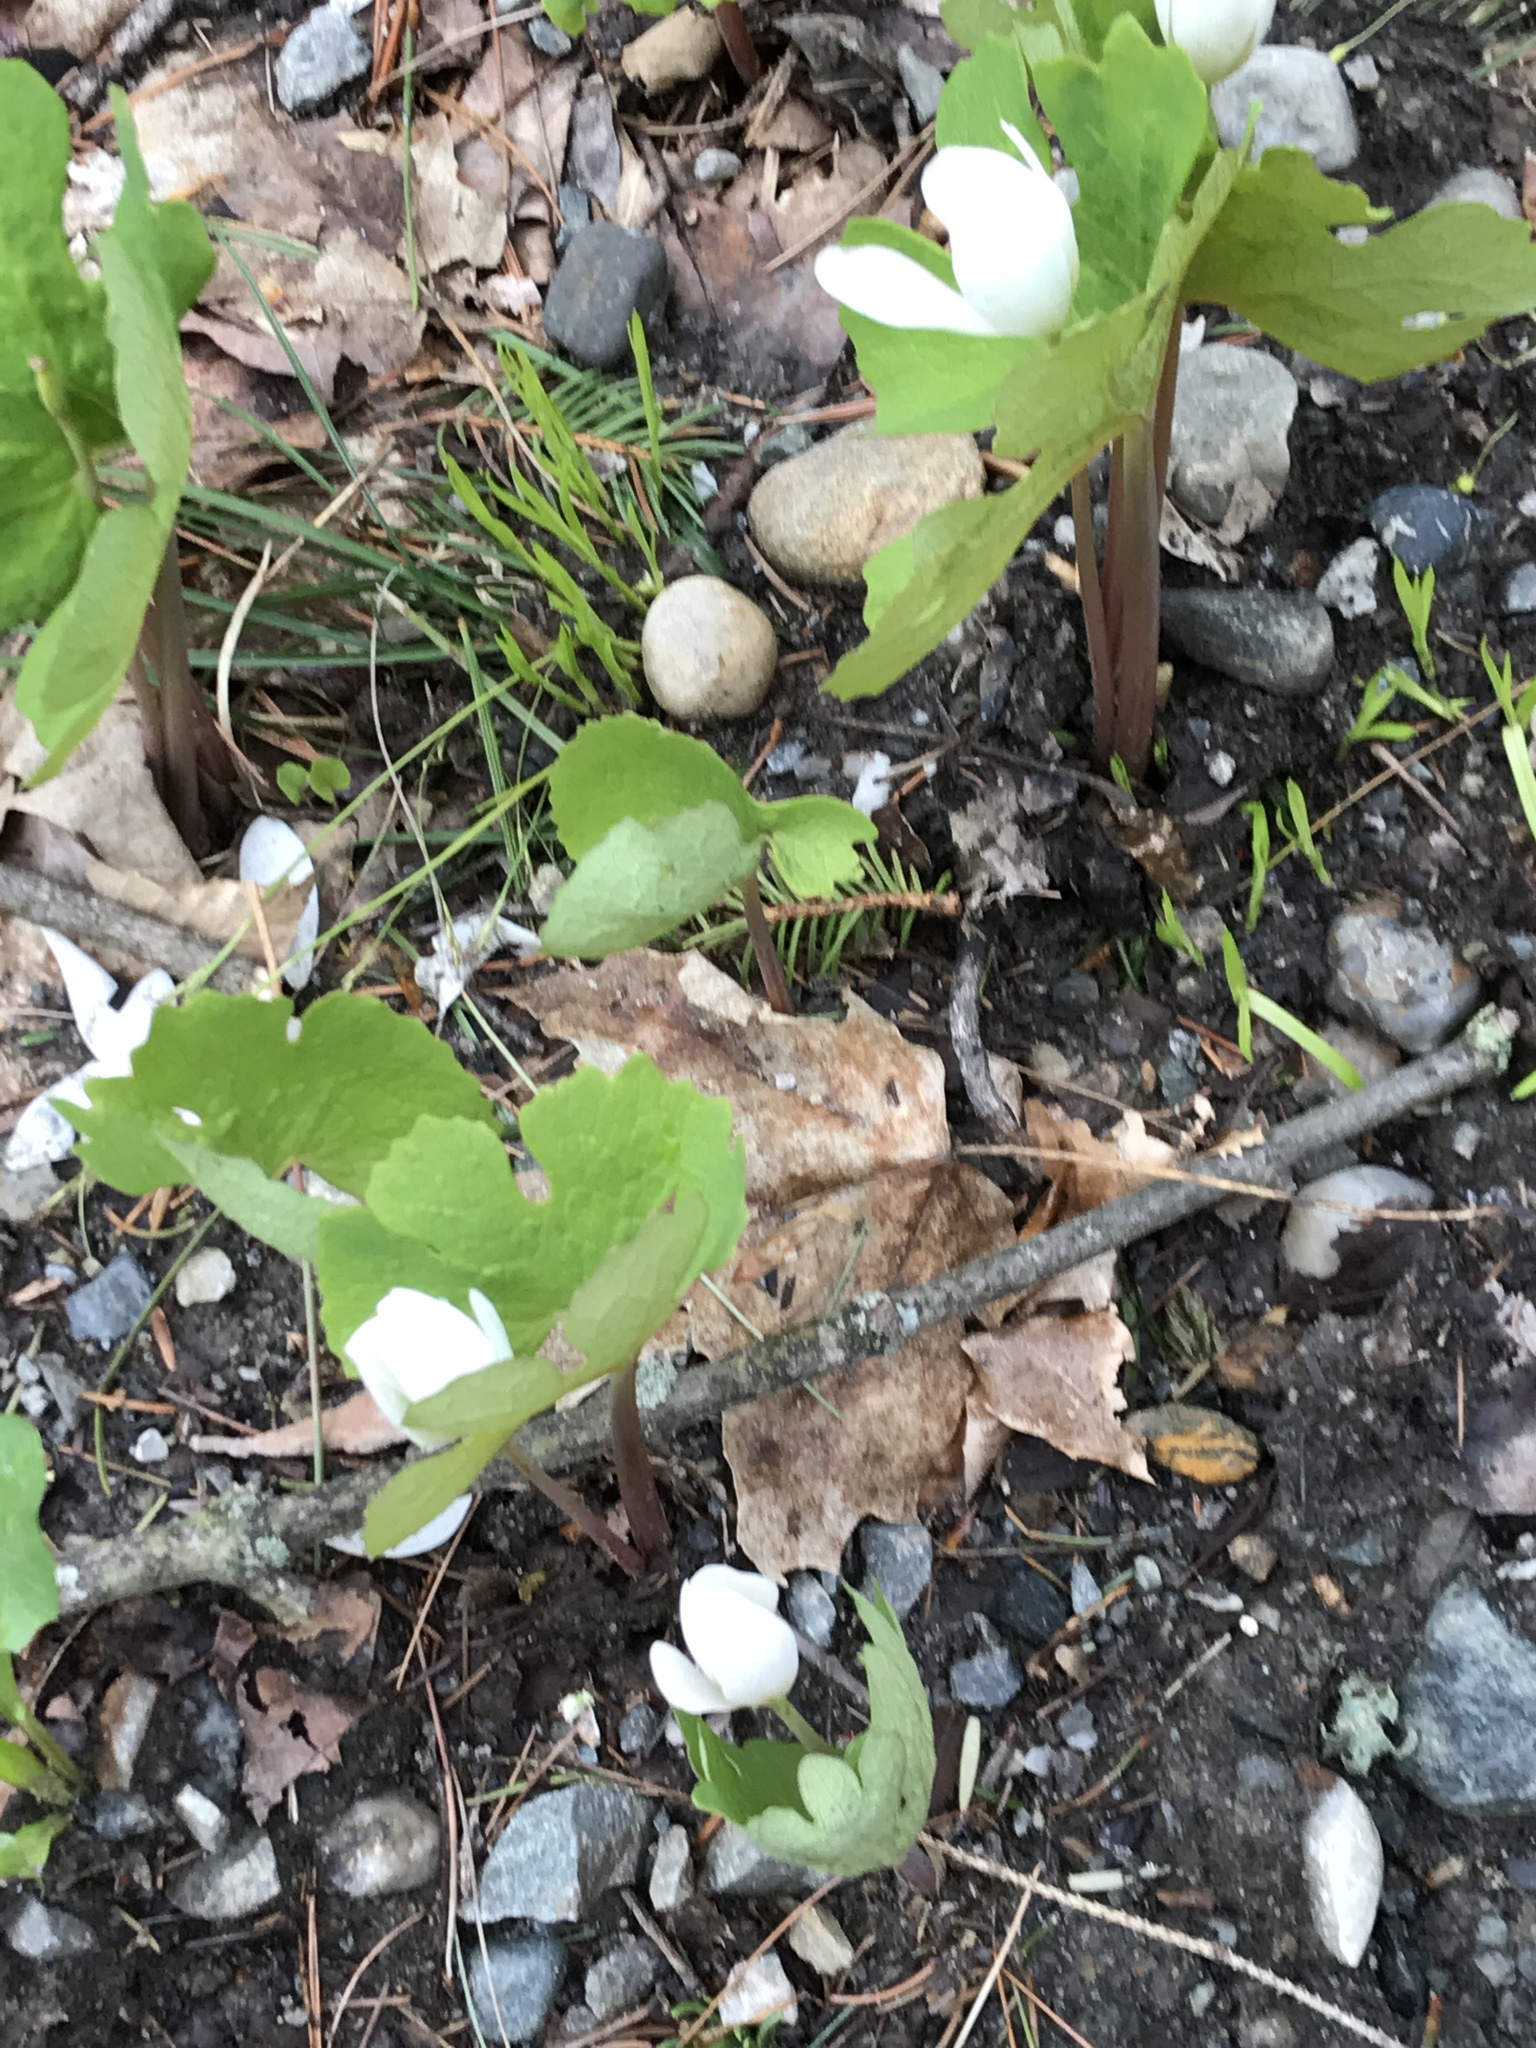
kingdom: Plantae
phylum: Tracheophyta
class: Magnoliopsida
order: Ranunculales
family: Papaveraceae
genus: Sanguinaria
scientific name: Sanguinaria canadensis
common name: Bloodroot
